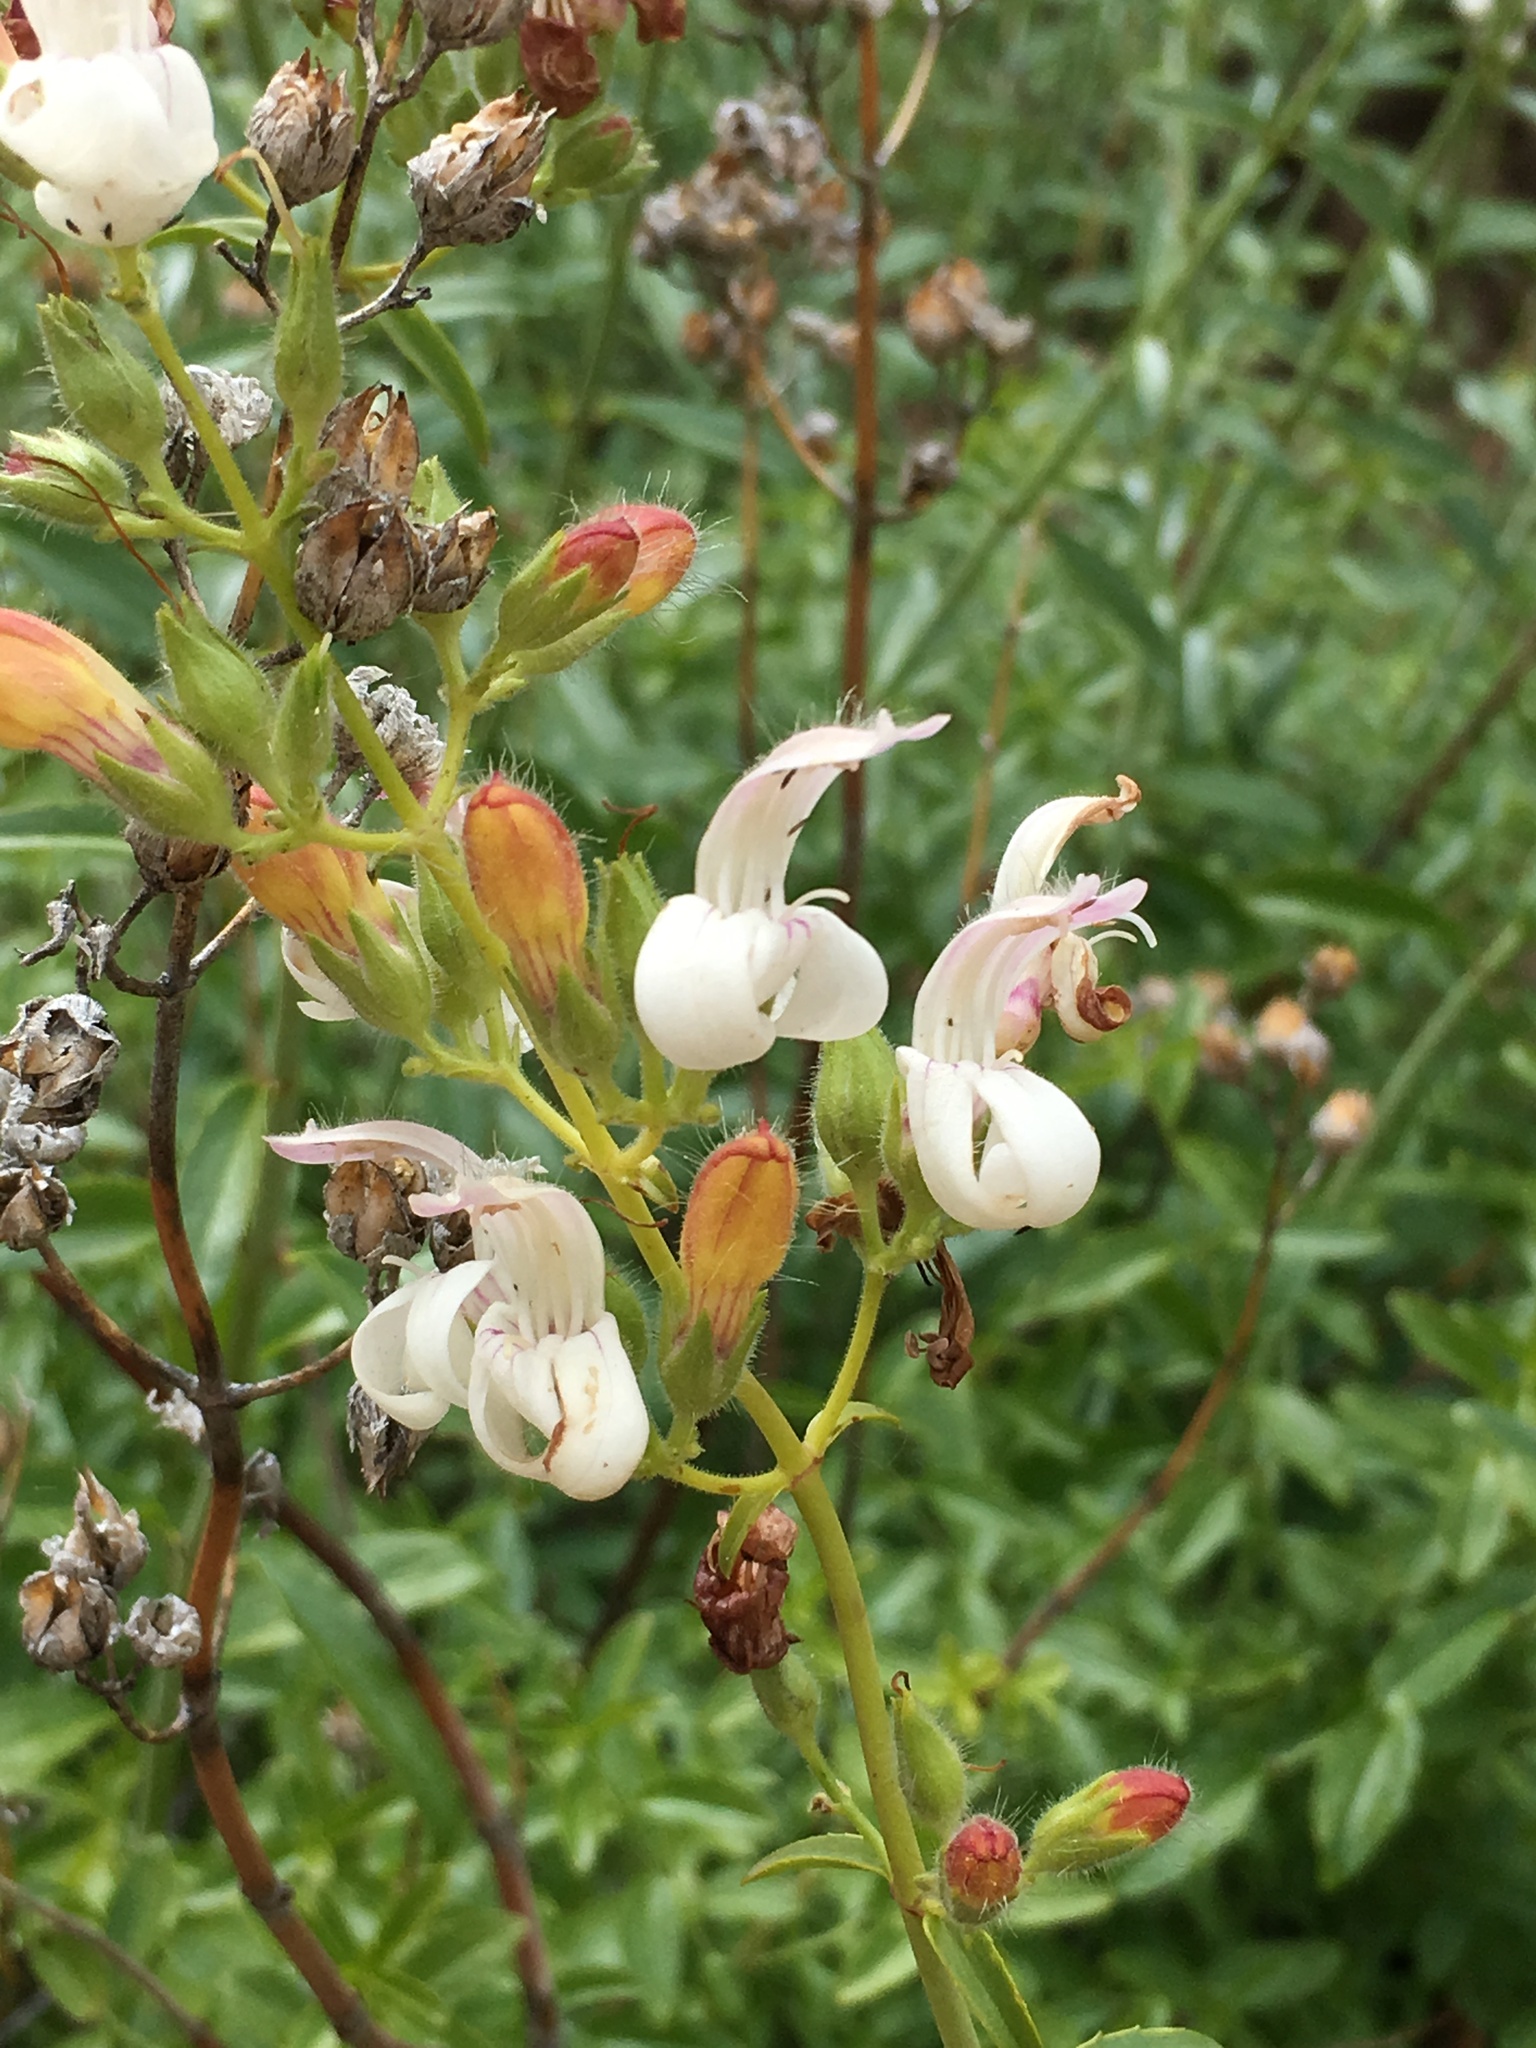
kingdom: Plantae
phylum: Tracheophyta
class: Magnoliopsida
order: Lamiales
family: Plantaginaceae
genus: Keckiella
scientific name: Keckiella breviflora
